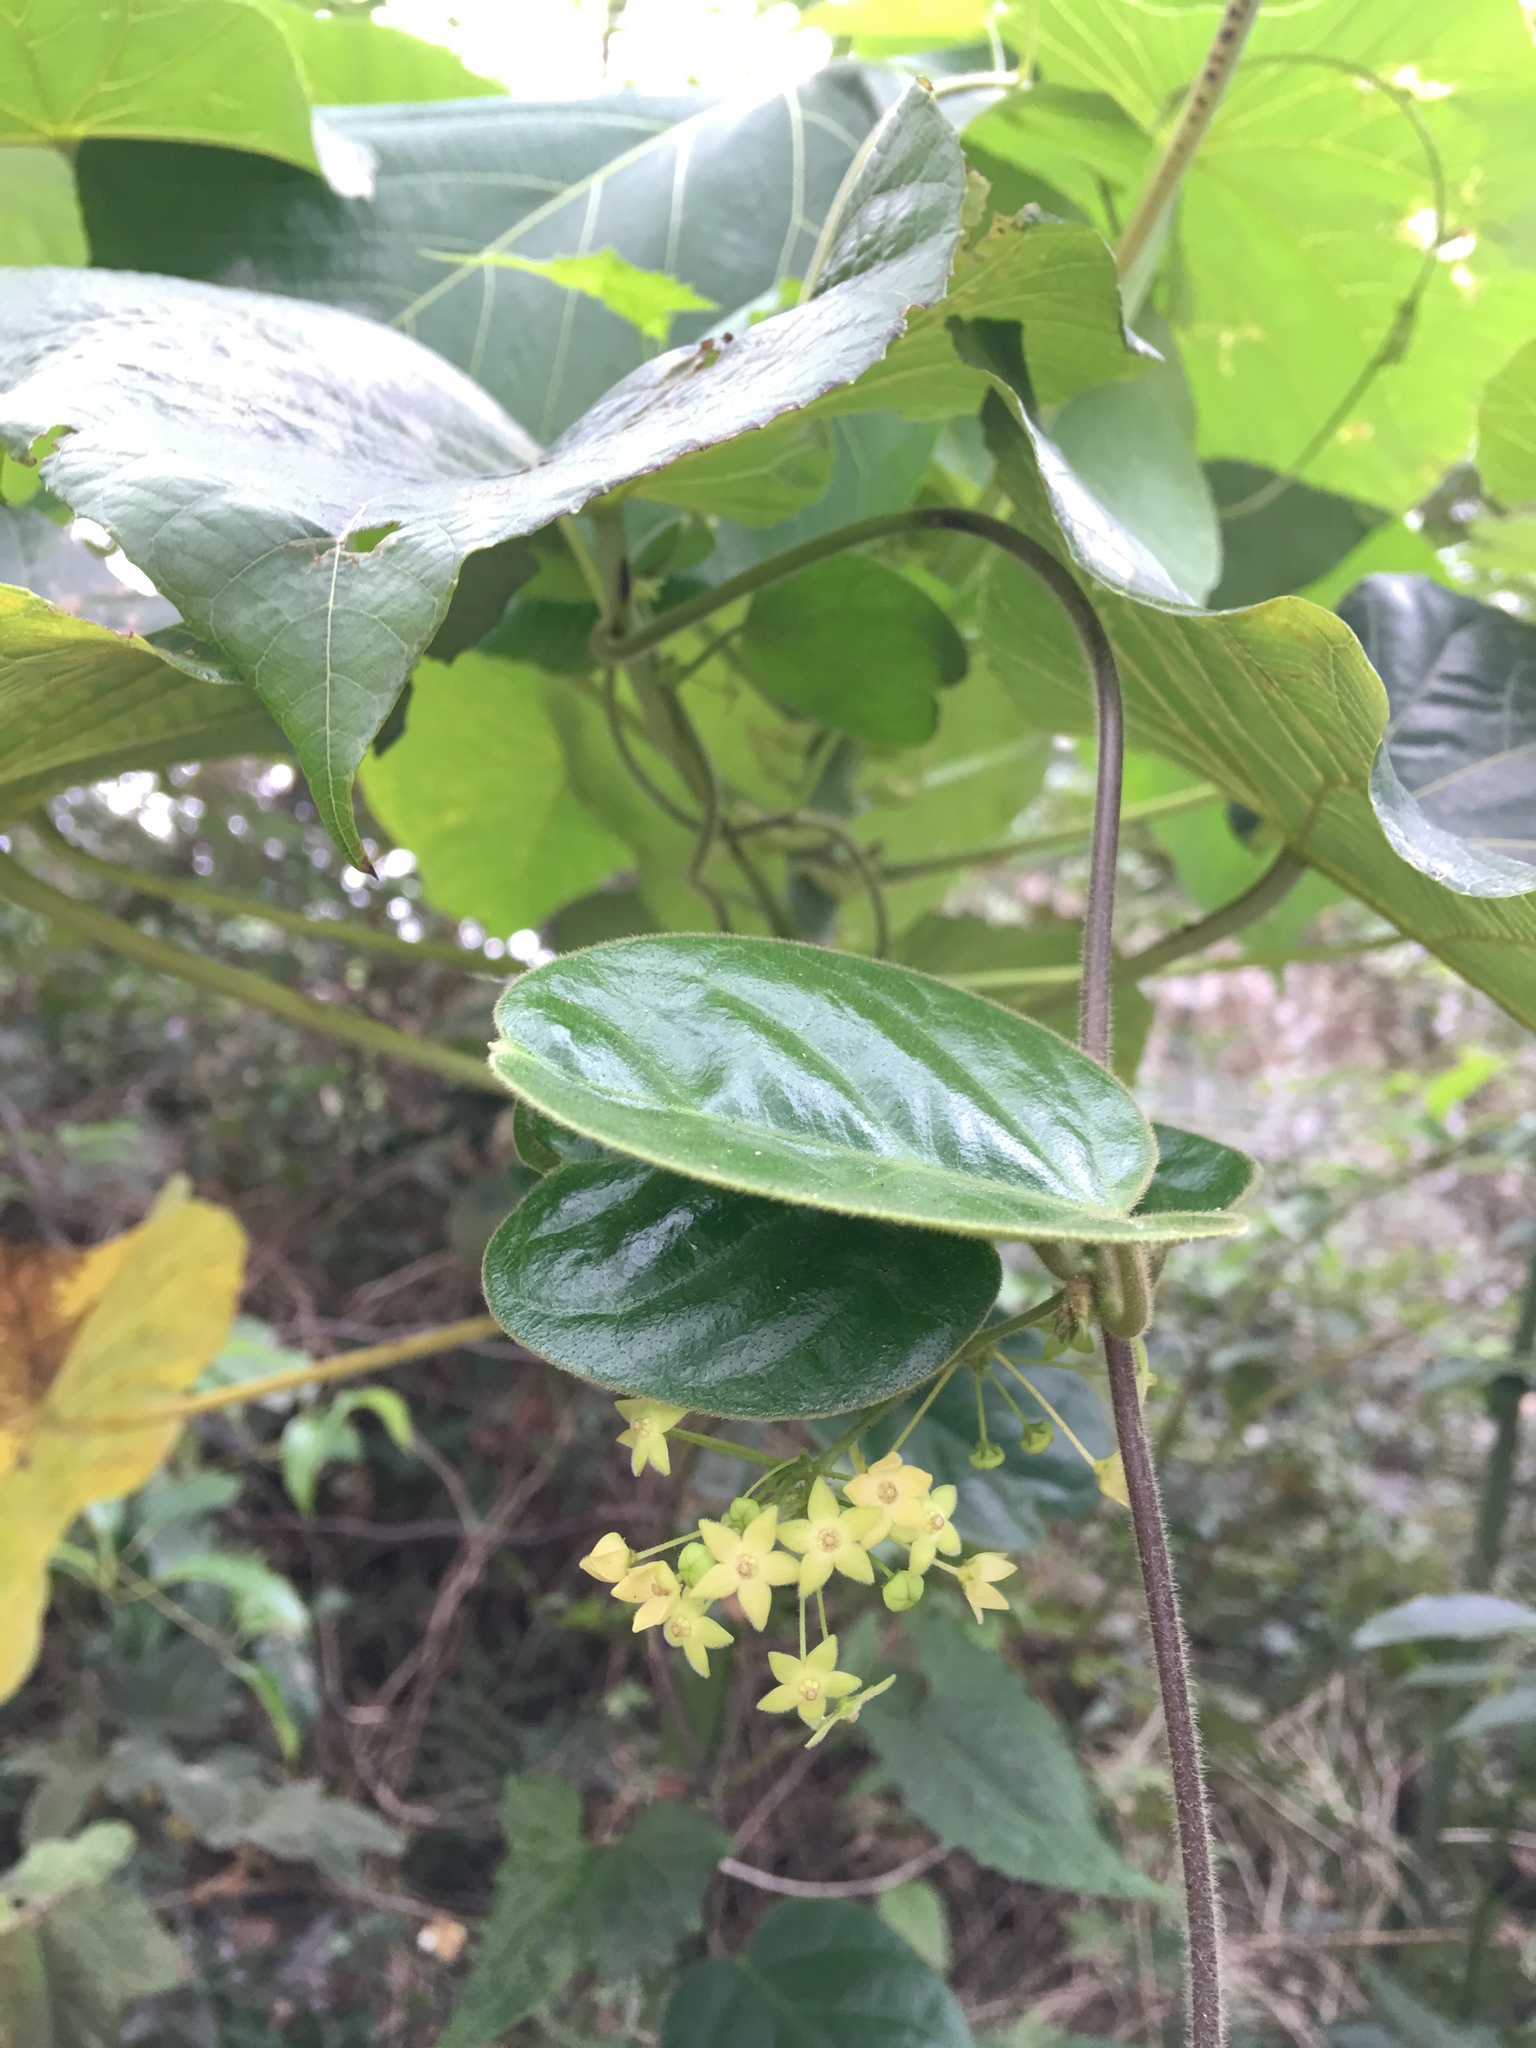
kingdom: Plantae
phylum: Tracheophyta
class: Magnoliopsida
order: Gentianales
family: Apocynaceae
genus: Vincetoxicum
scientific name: Vincetoxicum hirsutum
